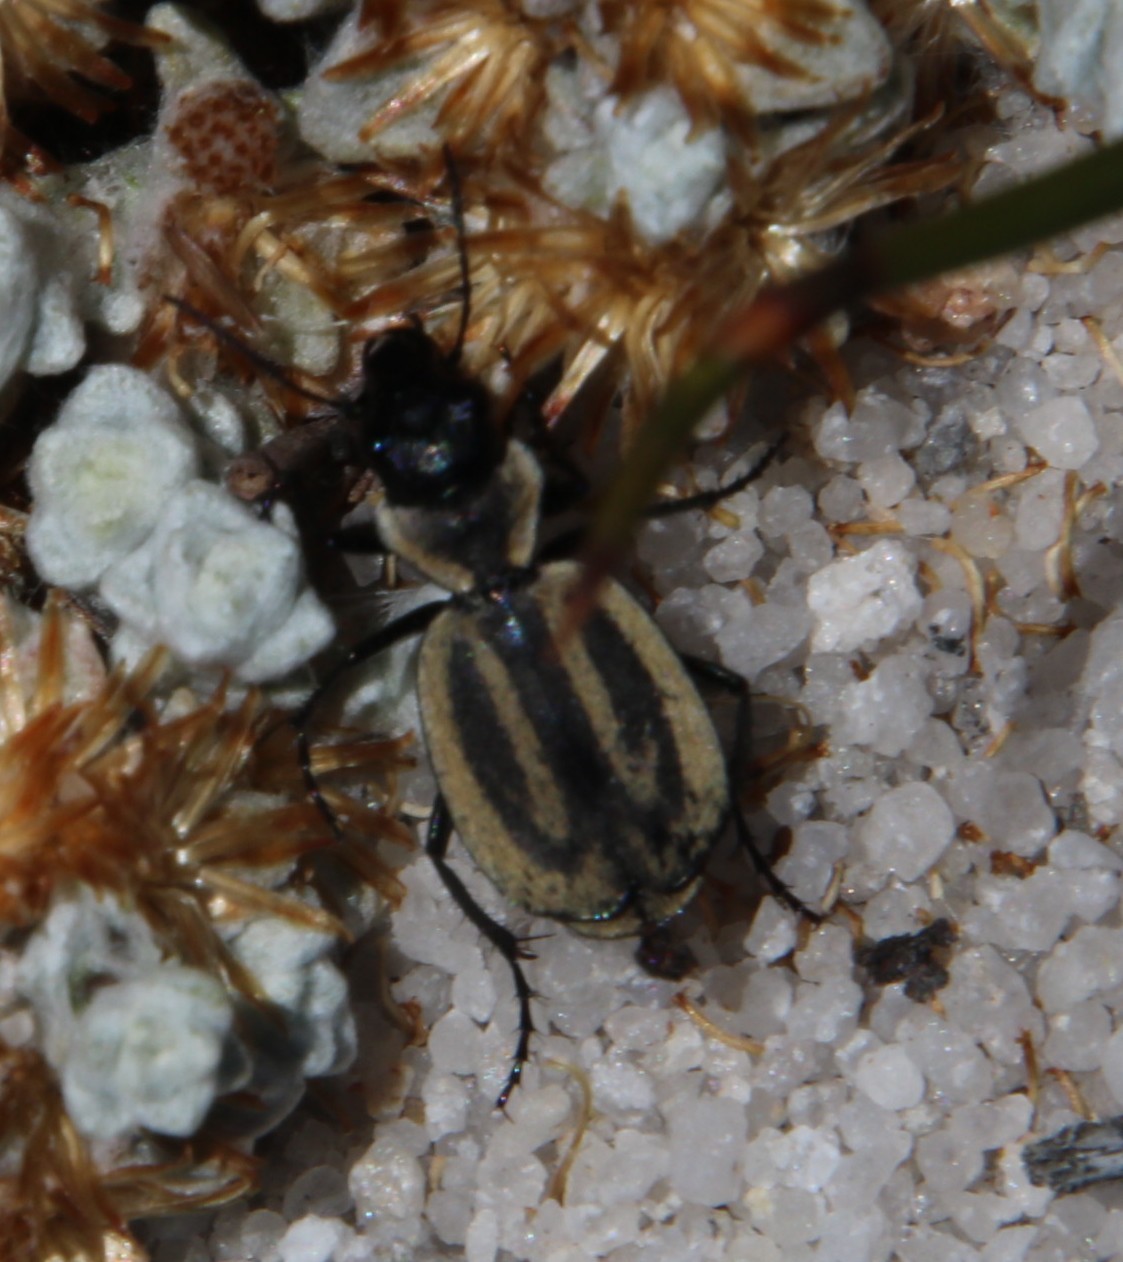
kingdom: Animalia
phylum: Arthropoda
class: Insecta
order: Coleoptera
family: Carabidae
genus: Graphipterus
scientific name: Graphipterus trilineatus
